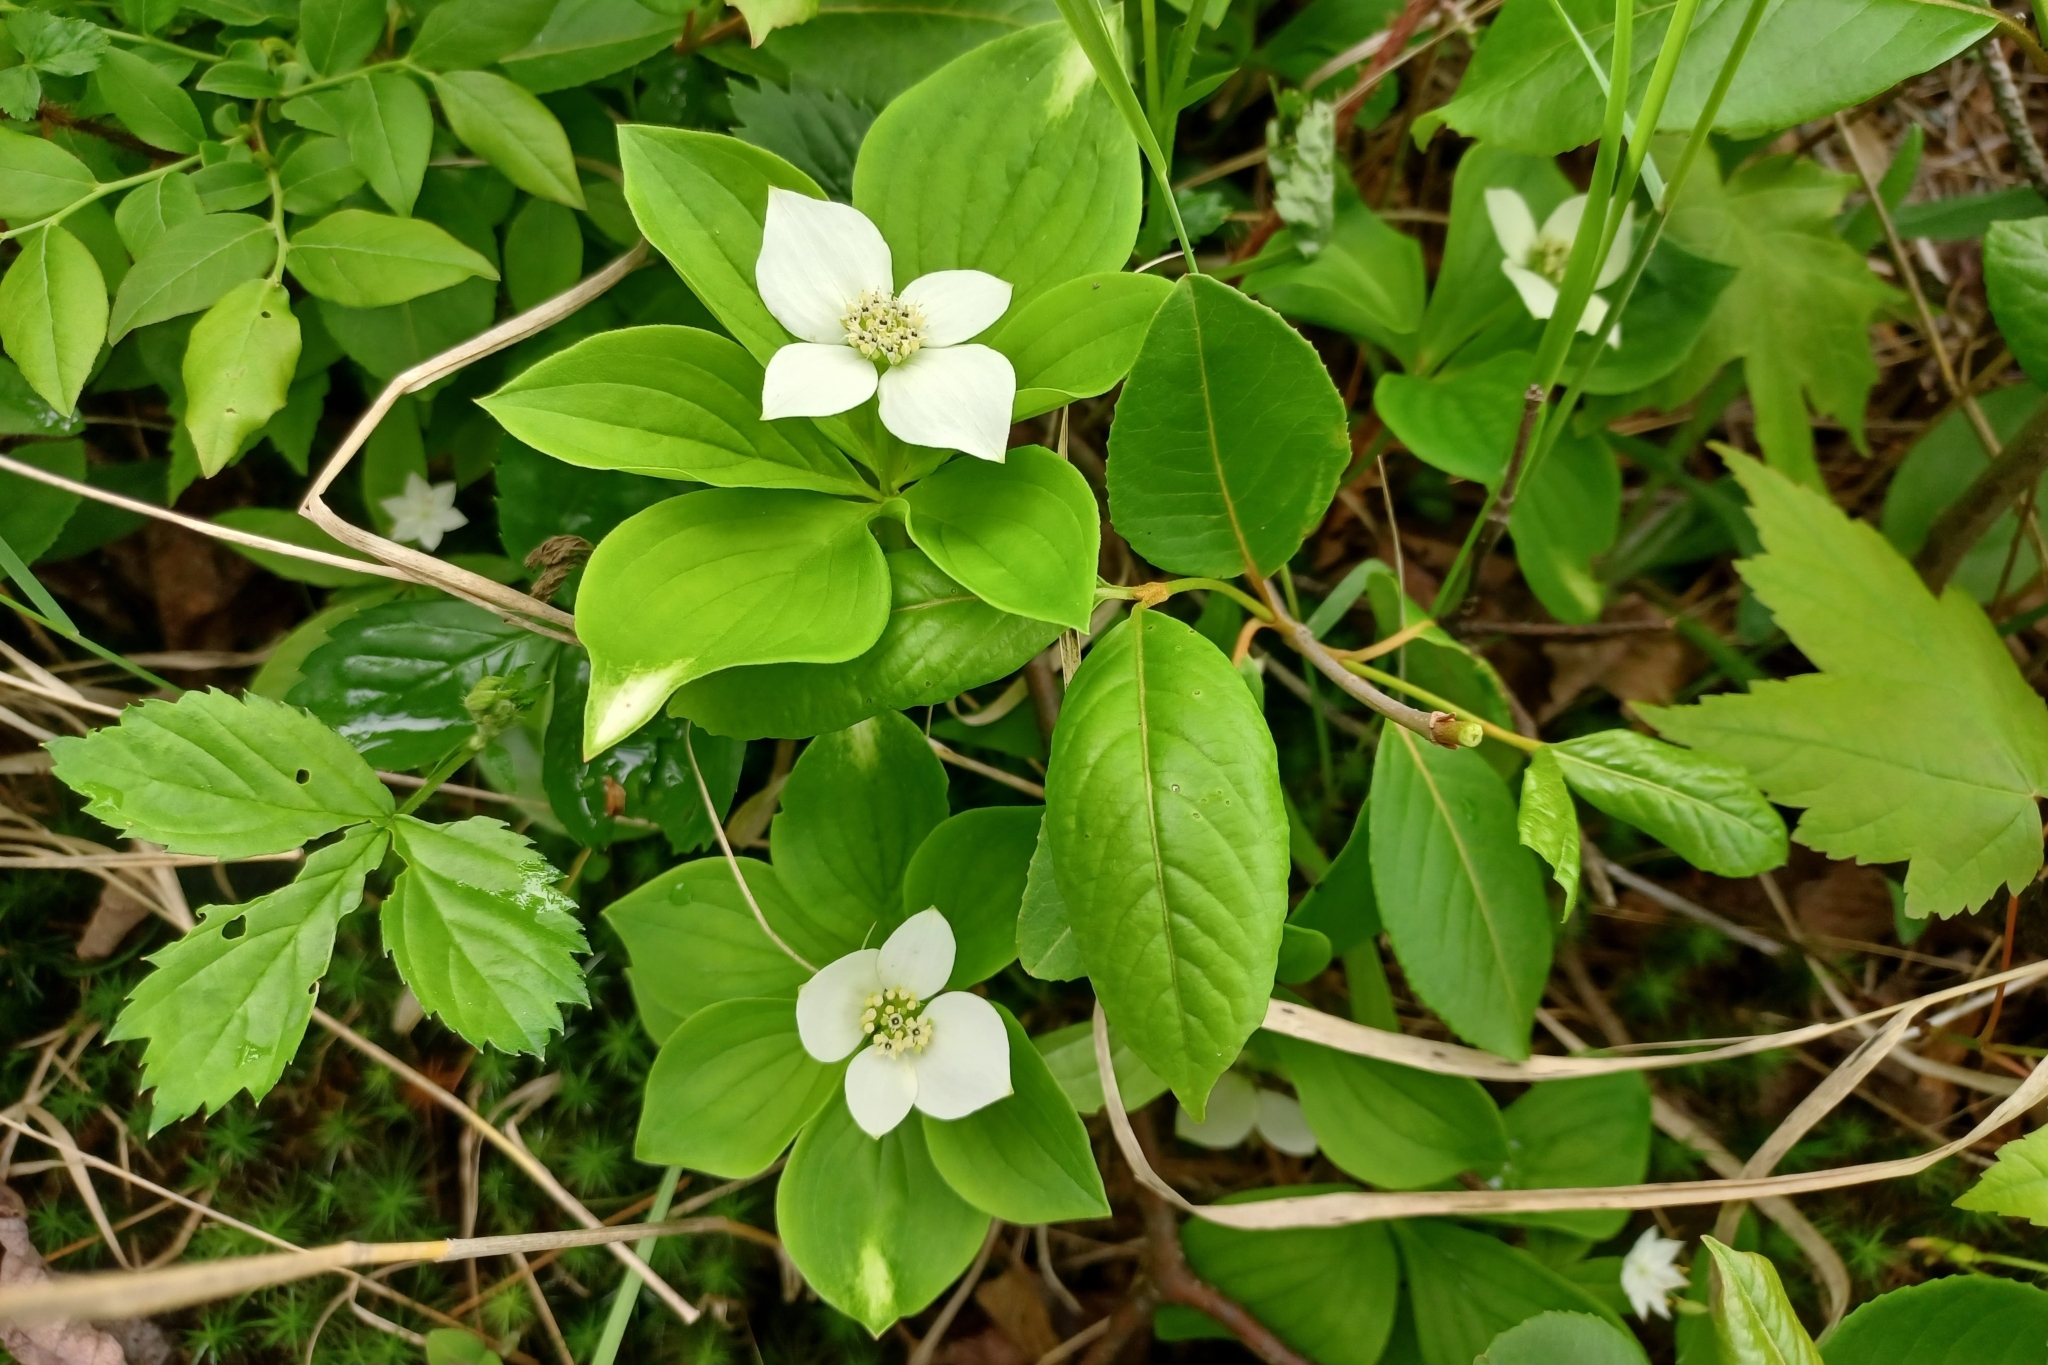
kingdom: Plantae
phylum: Tracheophyta
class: Magnoliopsida
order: Cornales
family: Cornaceae
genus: Cornus
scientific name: Cornus canadensis
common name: Creeping dogwood
